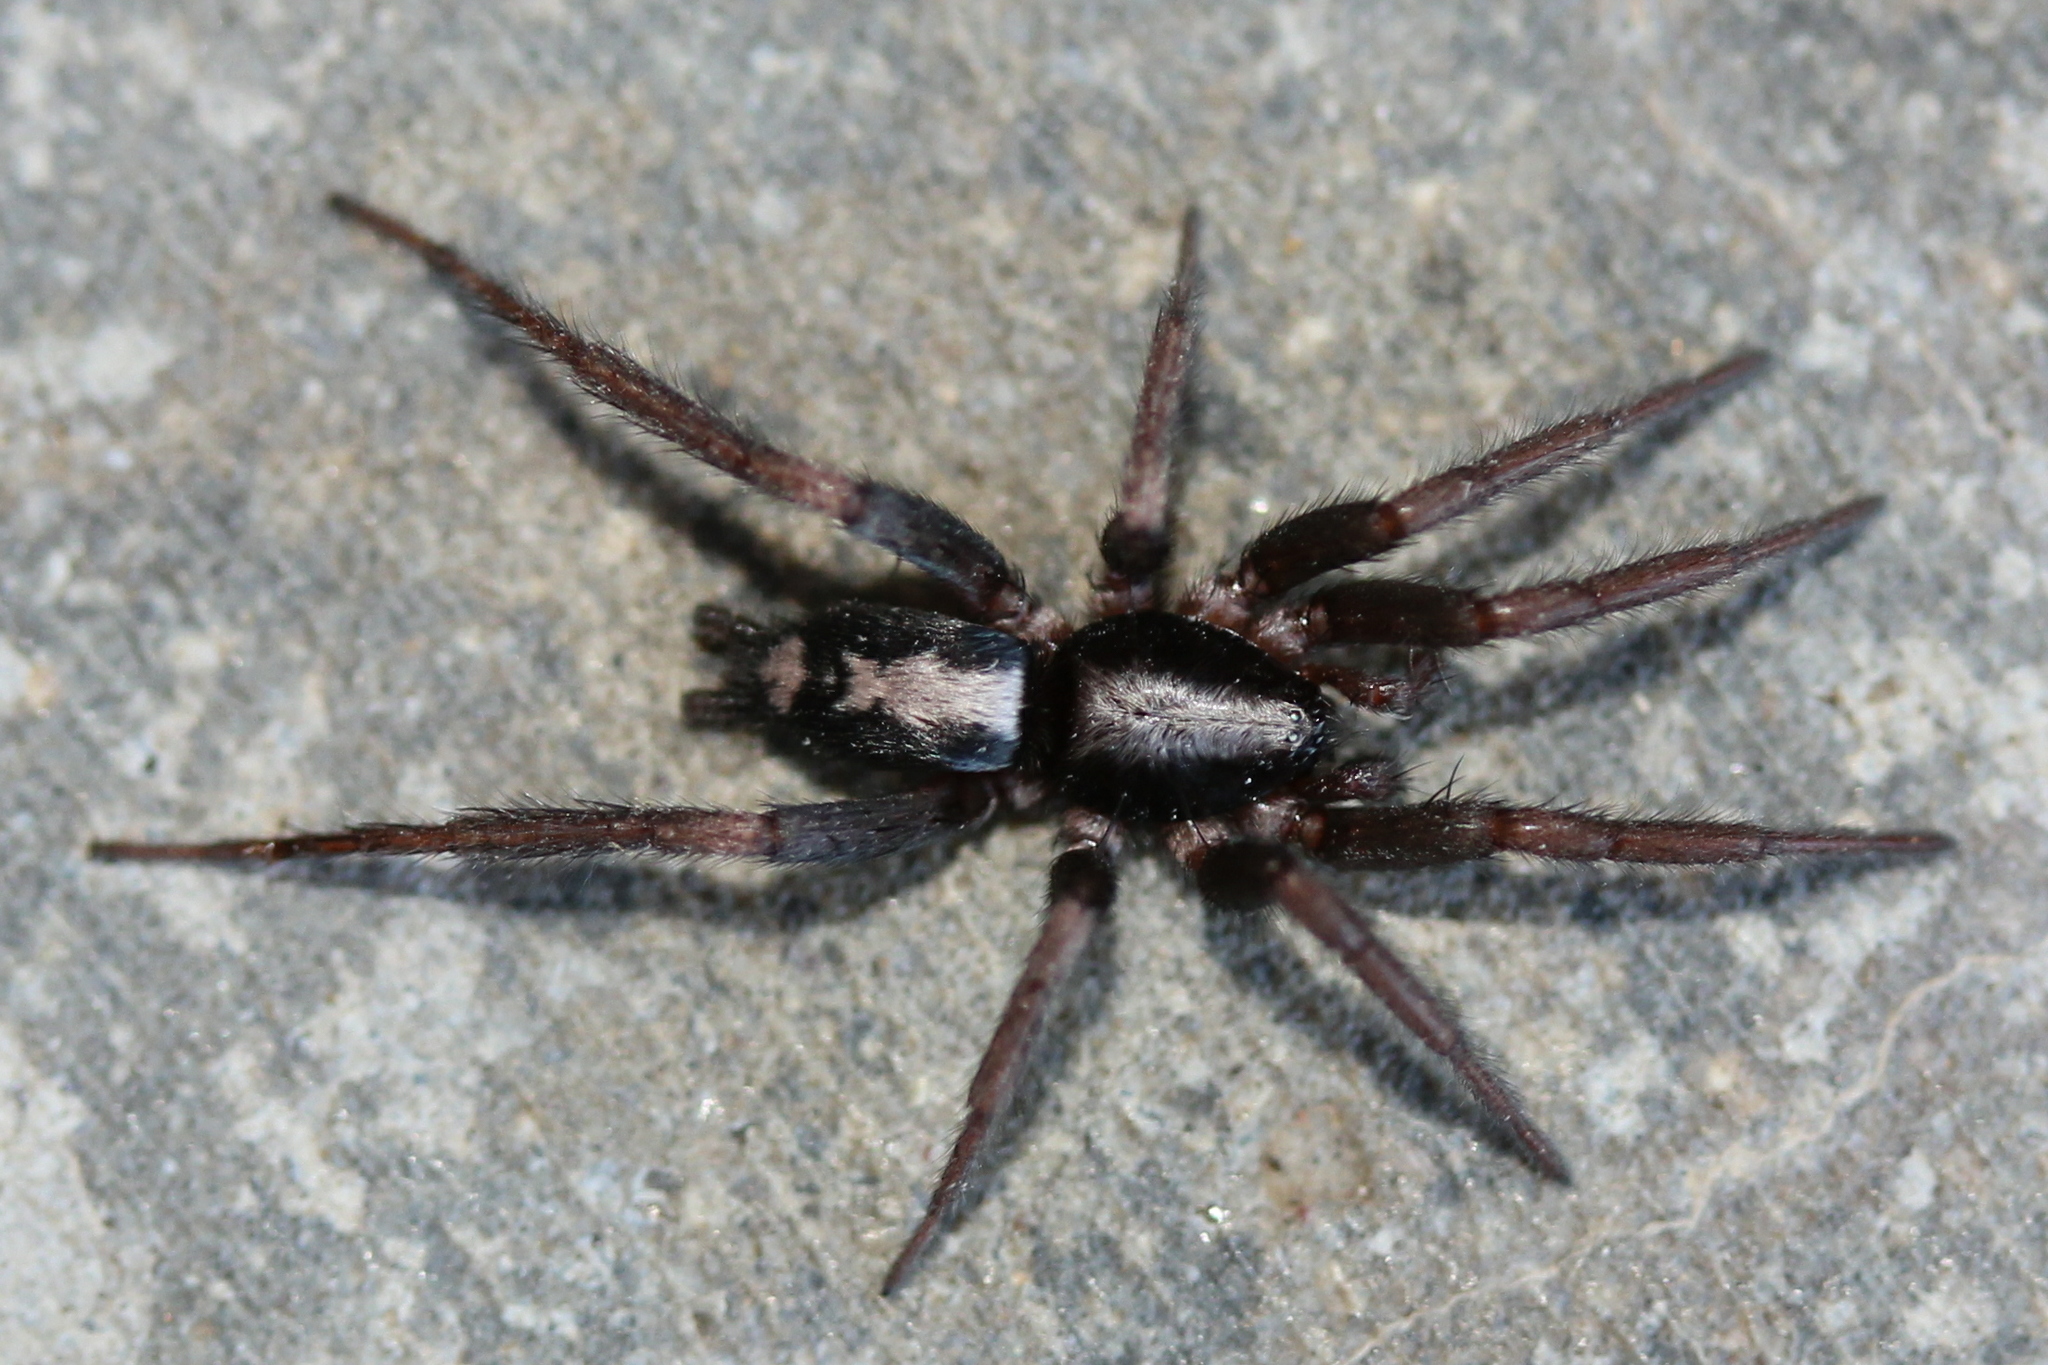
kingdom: Animalia
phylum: Arthropoda
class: Arachnida
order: Araneae
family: Gnaphosidae
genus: Herpyllus
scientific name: Herpyllus ecclesiasticus
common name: Eastern parson spider
